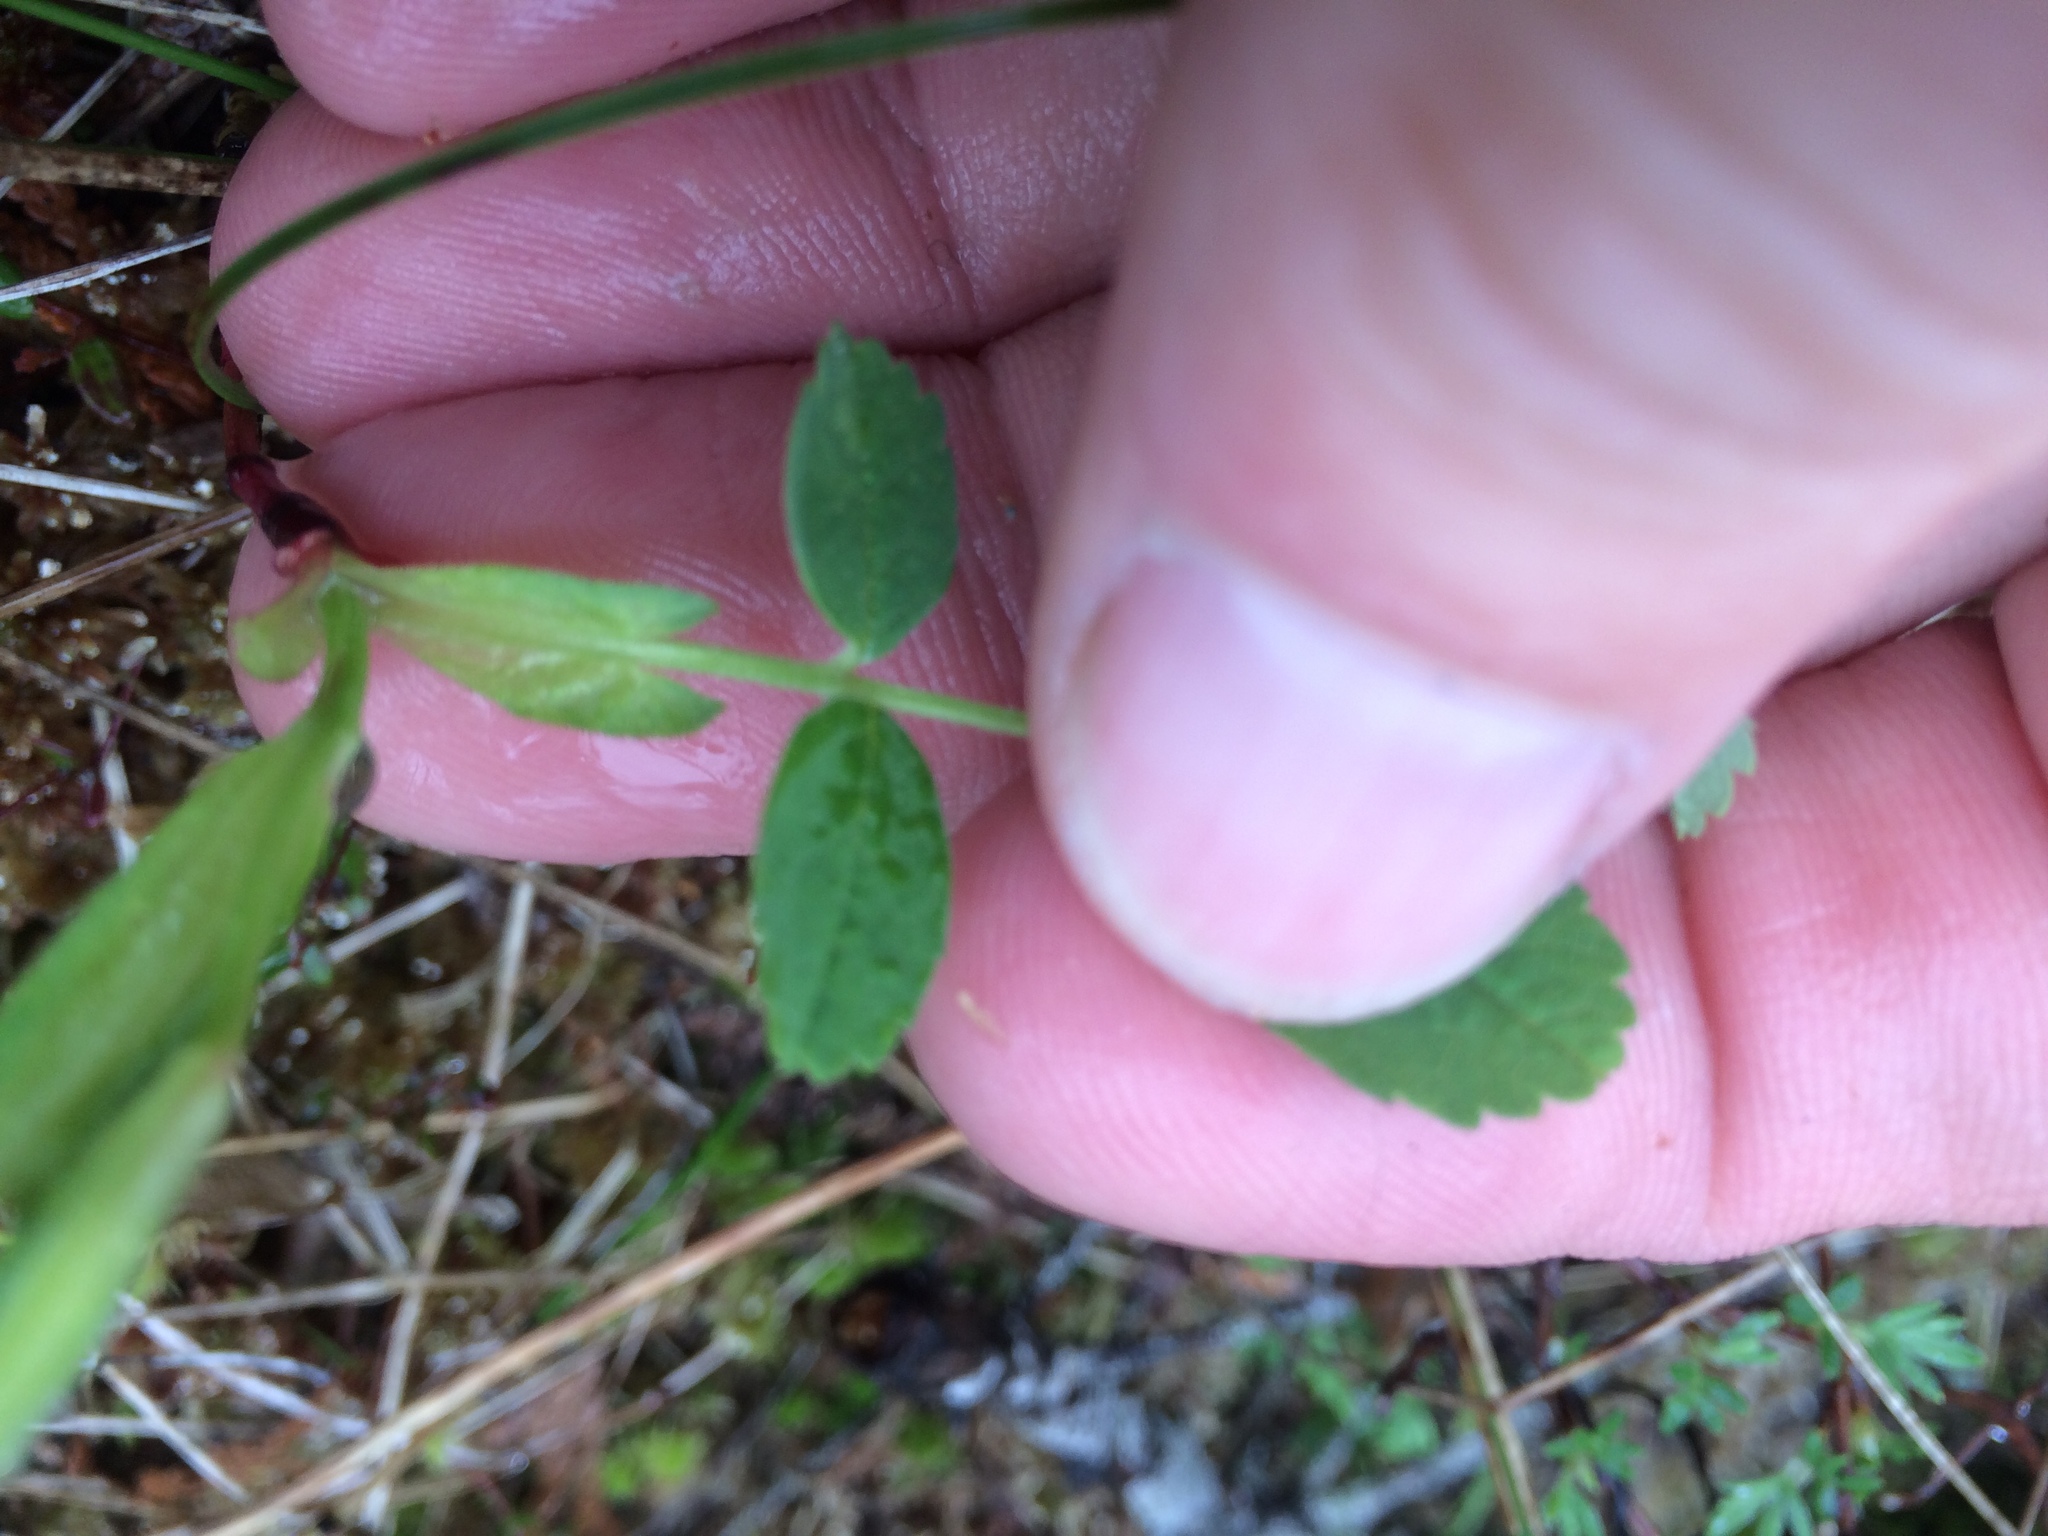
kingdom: Plantae
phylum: Tracheophyta
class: Magnoliopsida
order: Rosales
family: Rosaceae
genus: Rosa
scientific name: Rosa palustris
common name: Swamp rose
